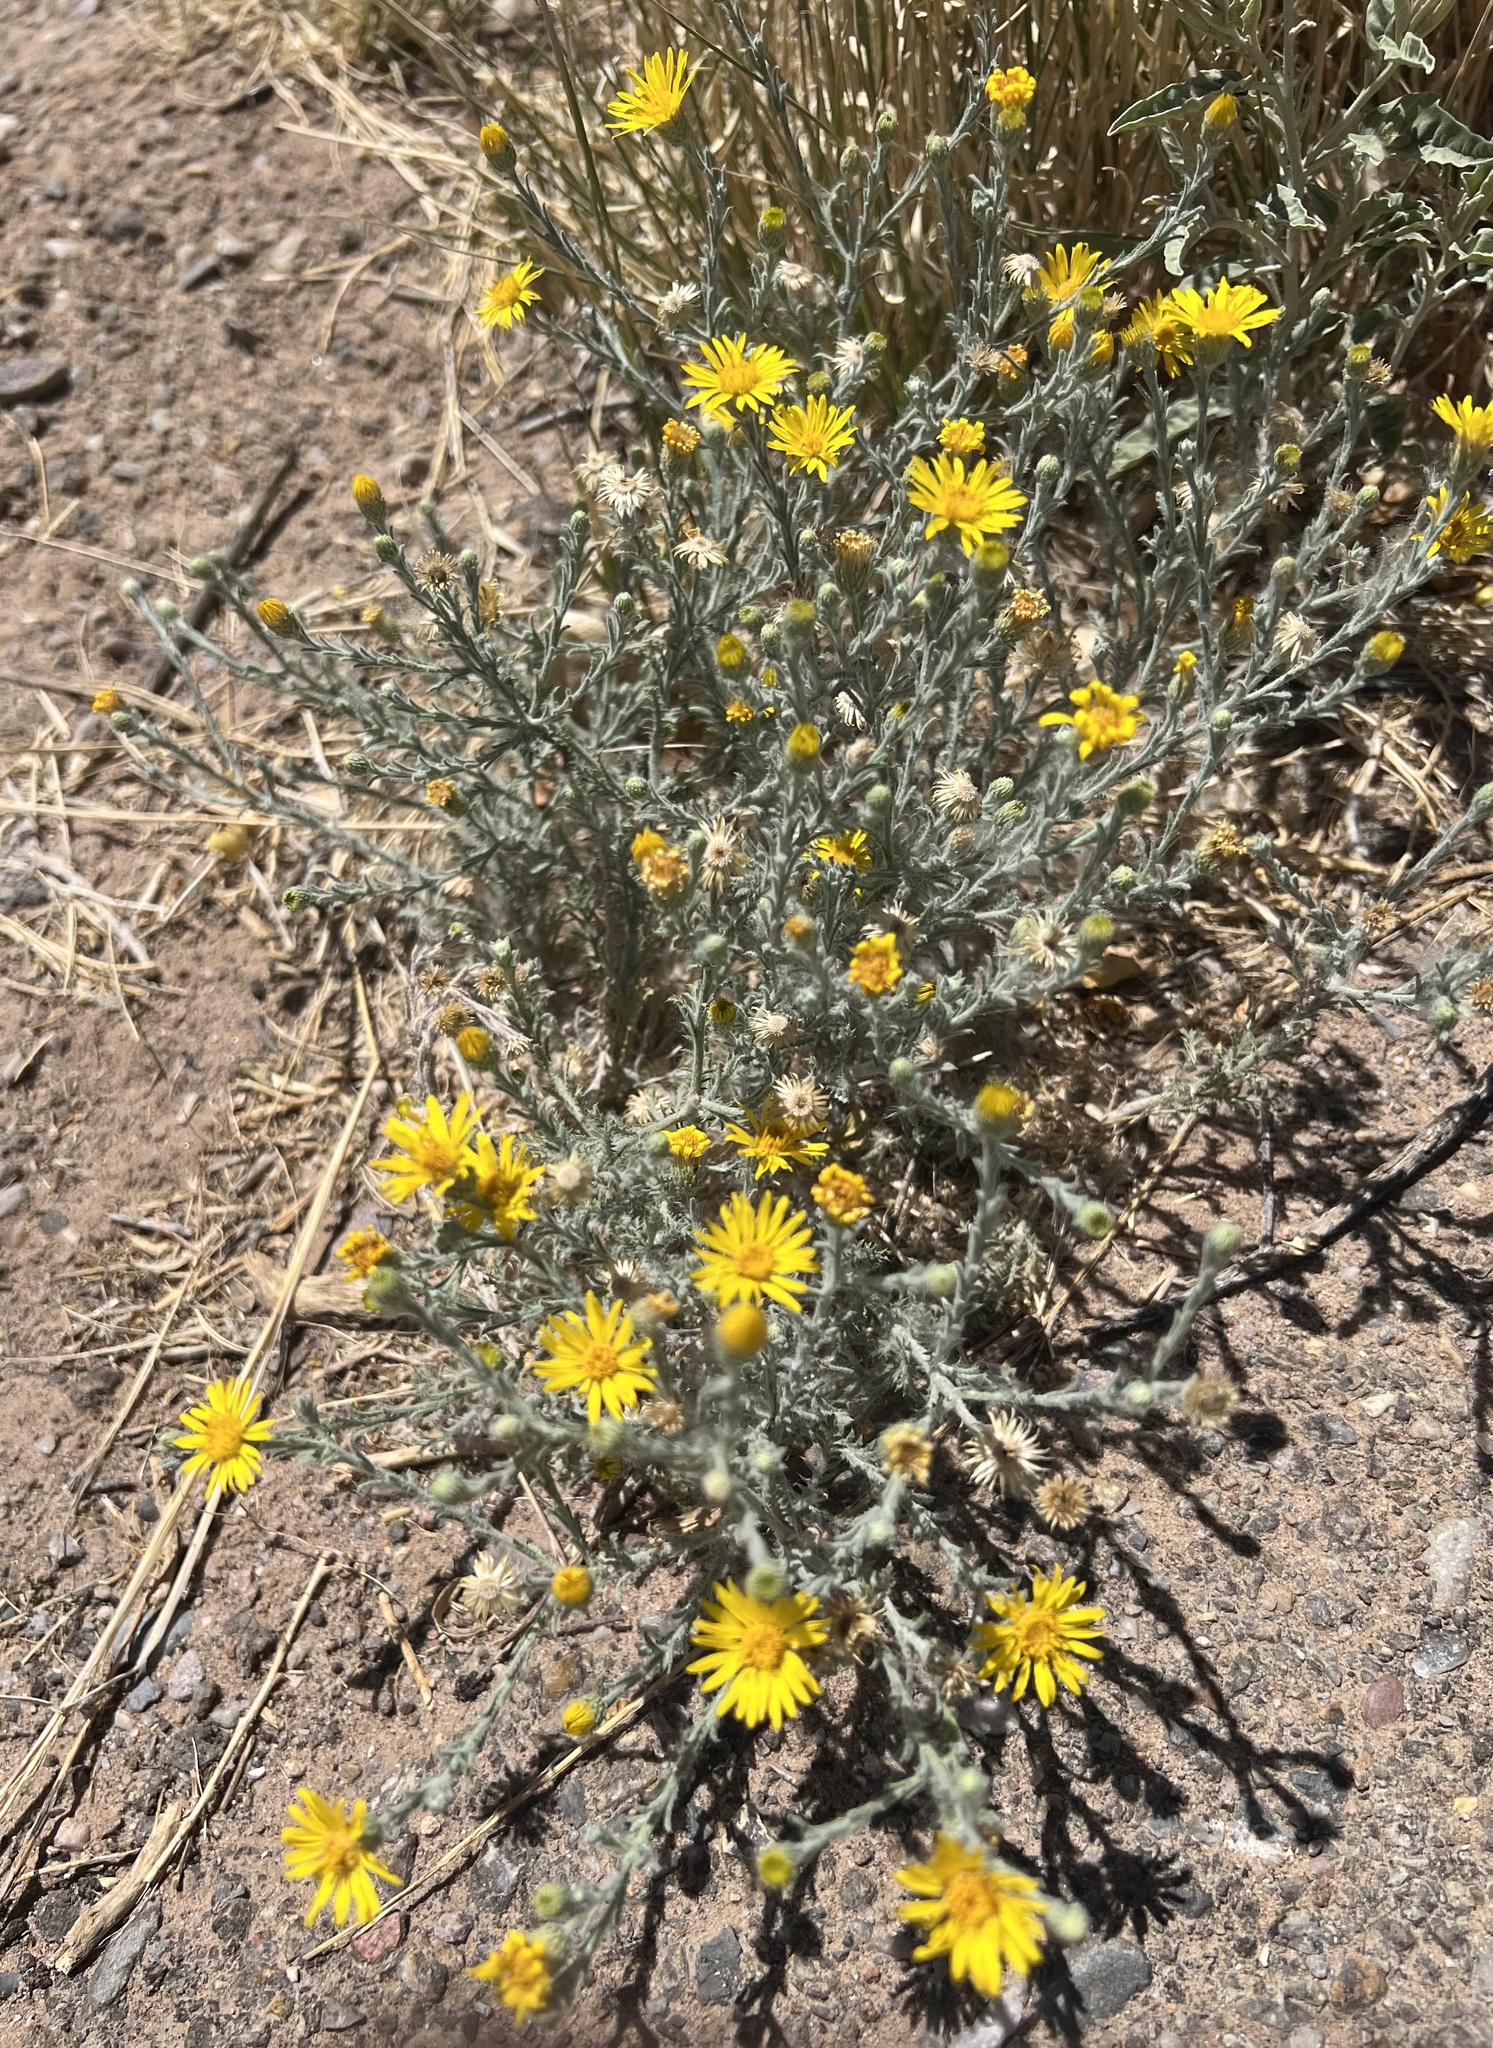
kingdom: Plantae
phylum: Tracheophyta
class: Magnoliopsida
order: Asterales
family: Asteraceae
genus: Xanthisma
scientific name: Xanthisma spinulosum
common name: Spiny goldenweed
